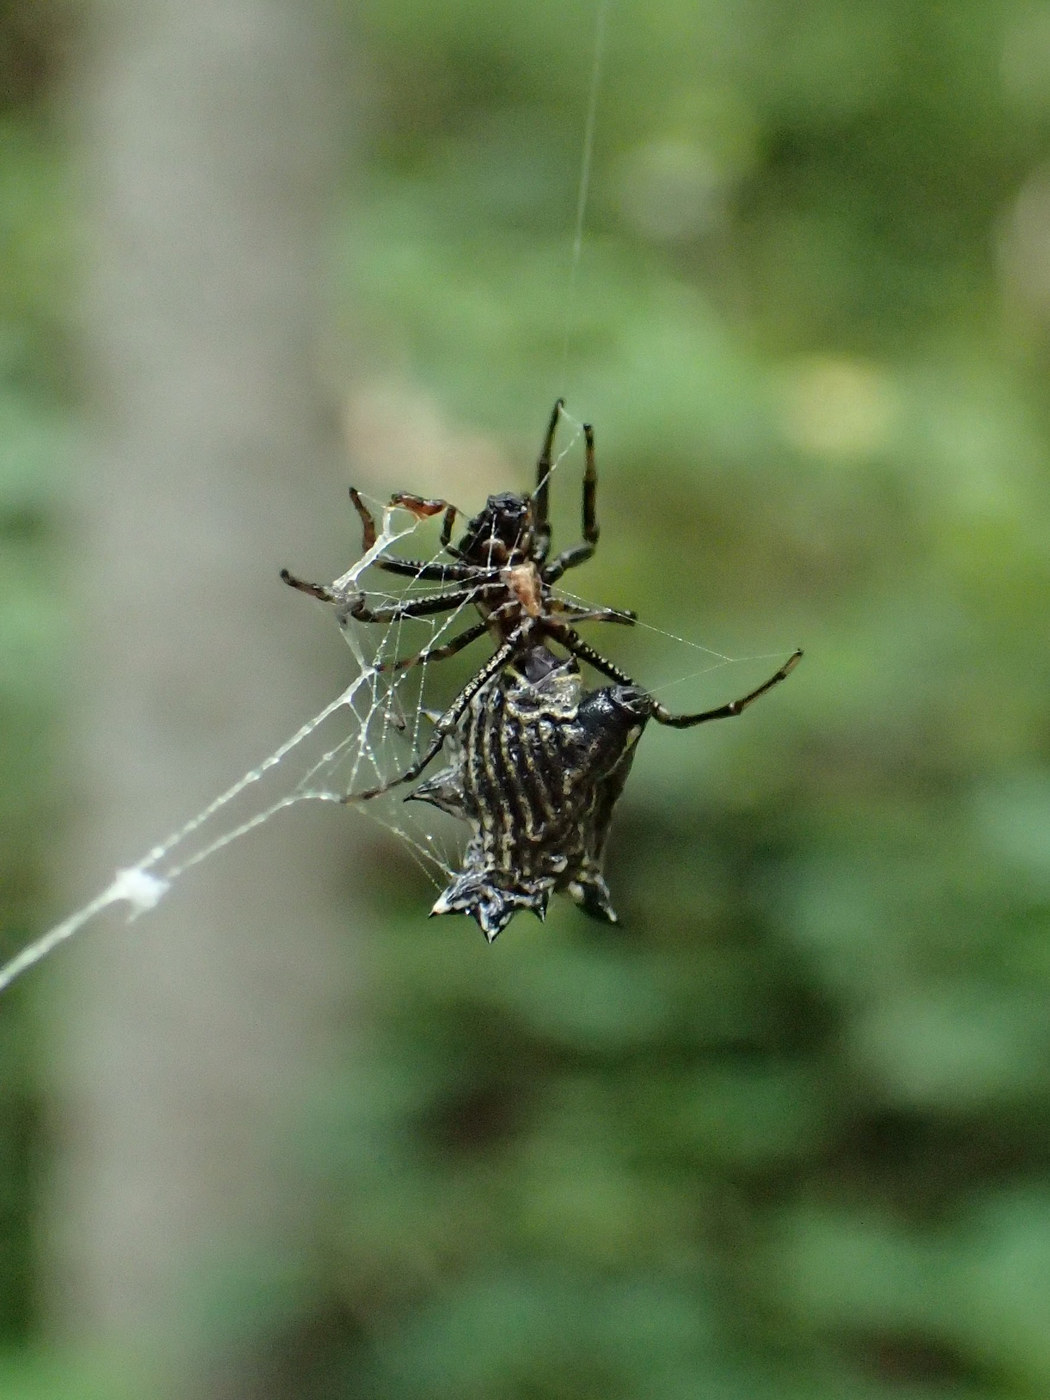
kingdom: Animalia
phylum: Arthropoda
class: Arachnida
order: Araneae
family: Araneidae
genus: Micrathena
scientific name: Micrathena gracilis
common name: Orb weavers
